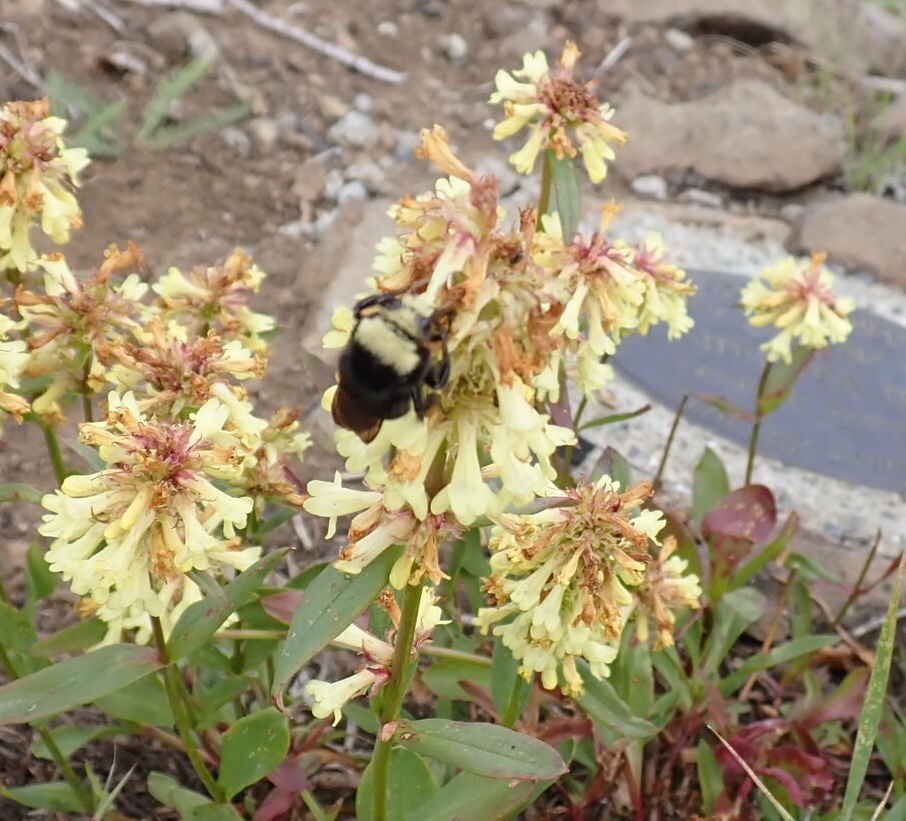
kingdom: Animalia
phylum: Arthropoda
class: Insecta
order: Hymenoptera
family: Apidae
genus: Bombus
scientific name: Bombus vosnesenskii
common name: Vosnesensky bumble bee
